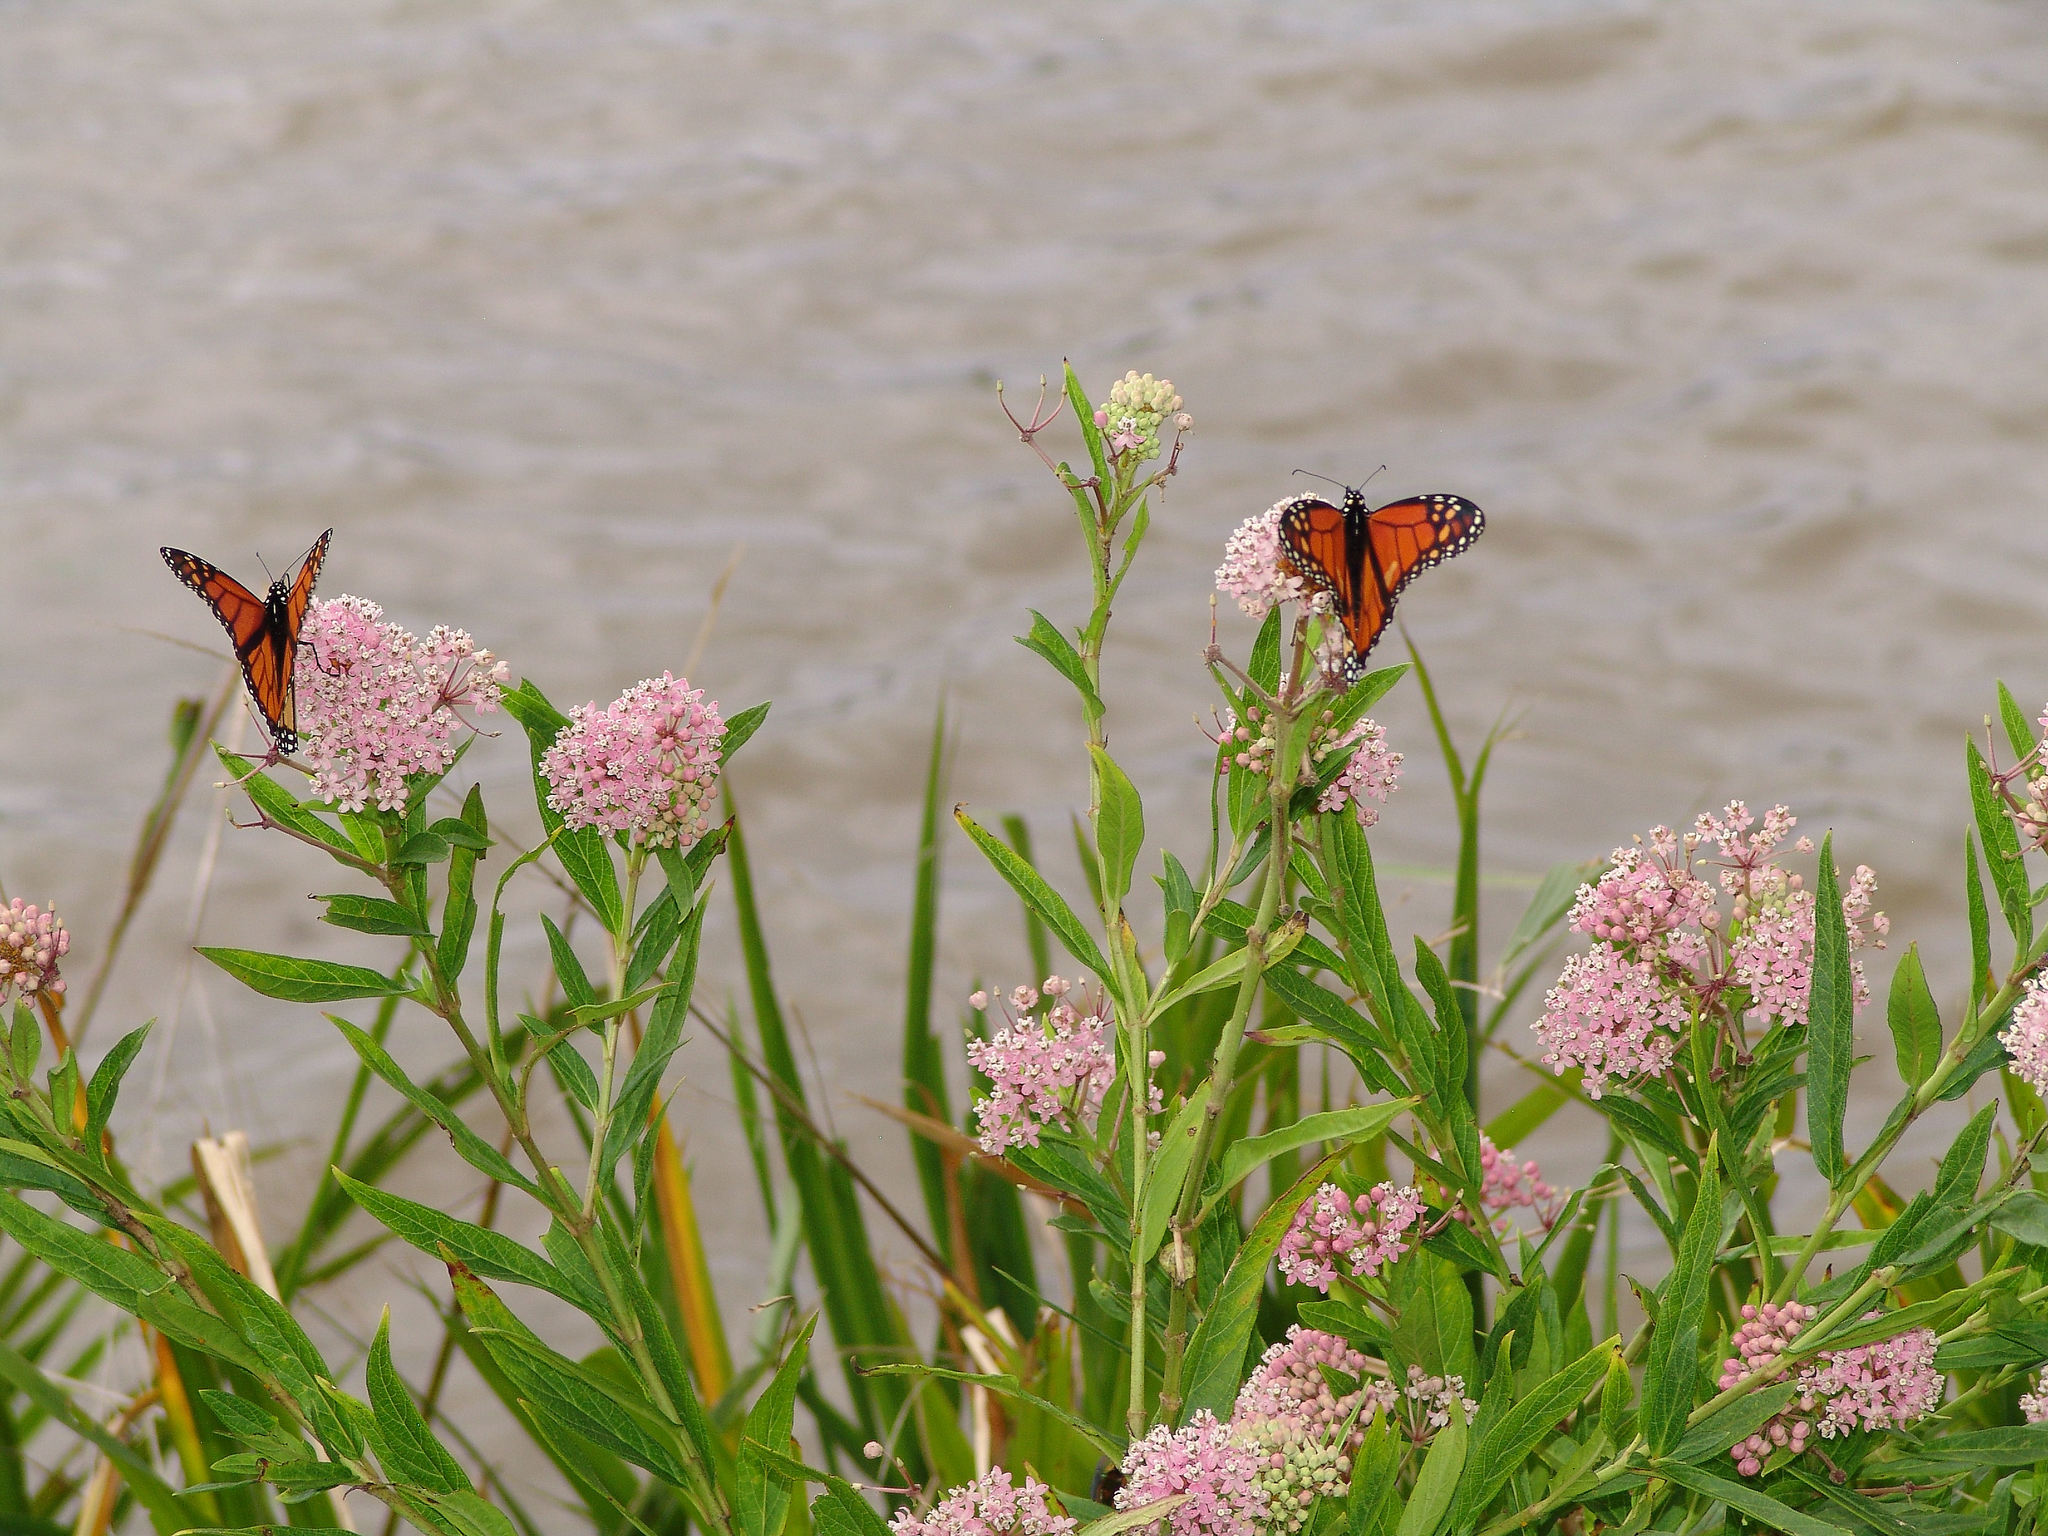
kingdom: Animalia
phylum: Arthropoda
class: Insecta
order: Lepidoptera
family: Nymphalidae
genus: Danaus
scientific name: Danaus plexippus
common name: Monarch
